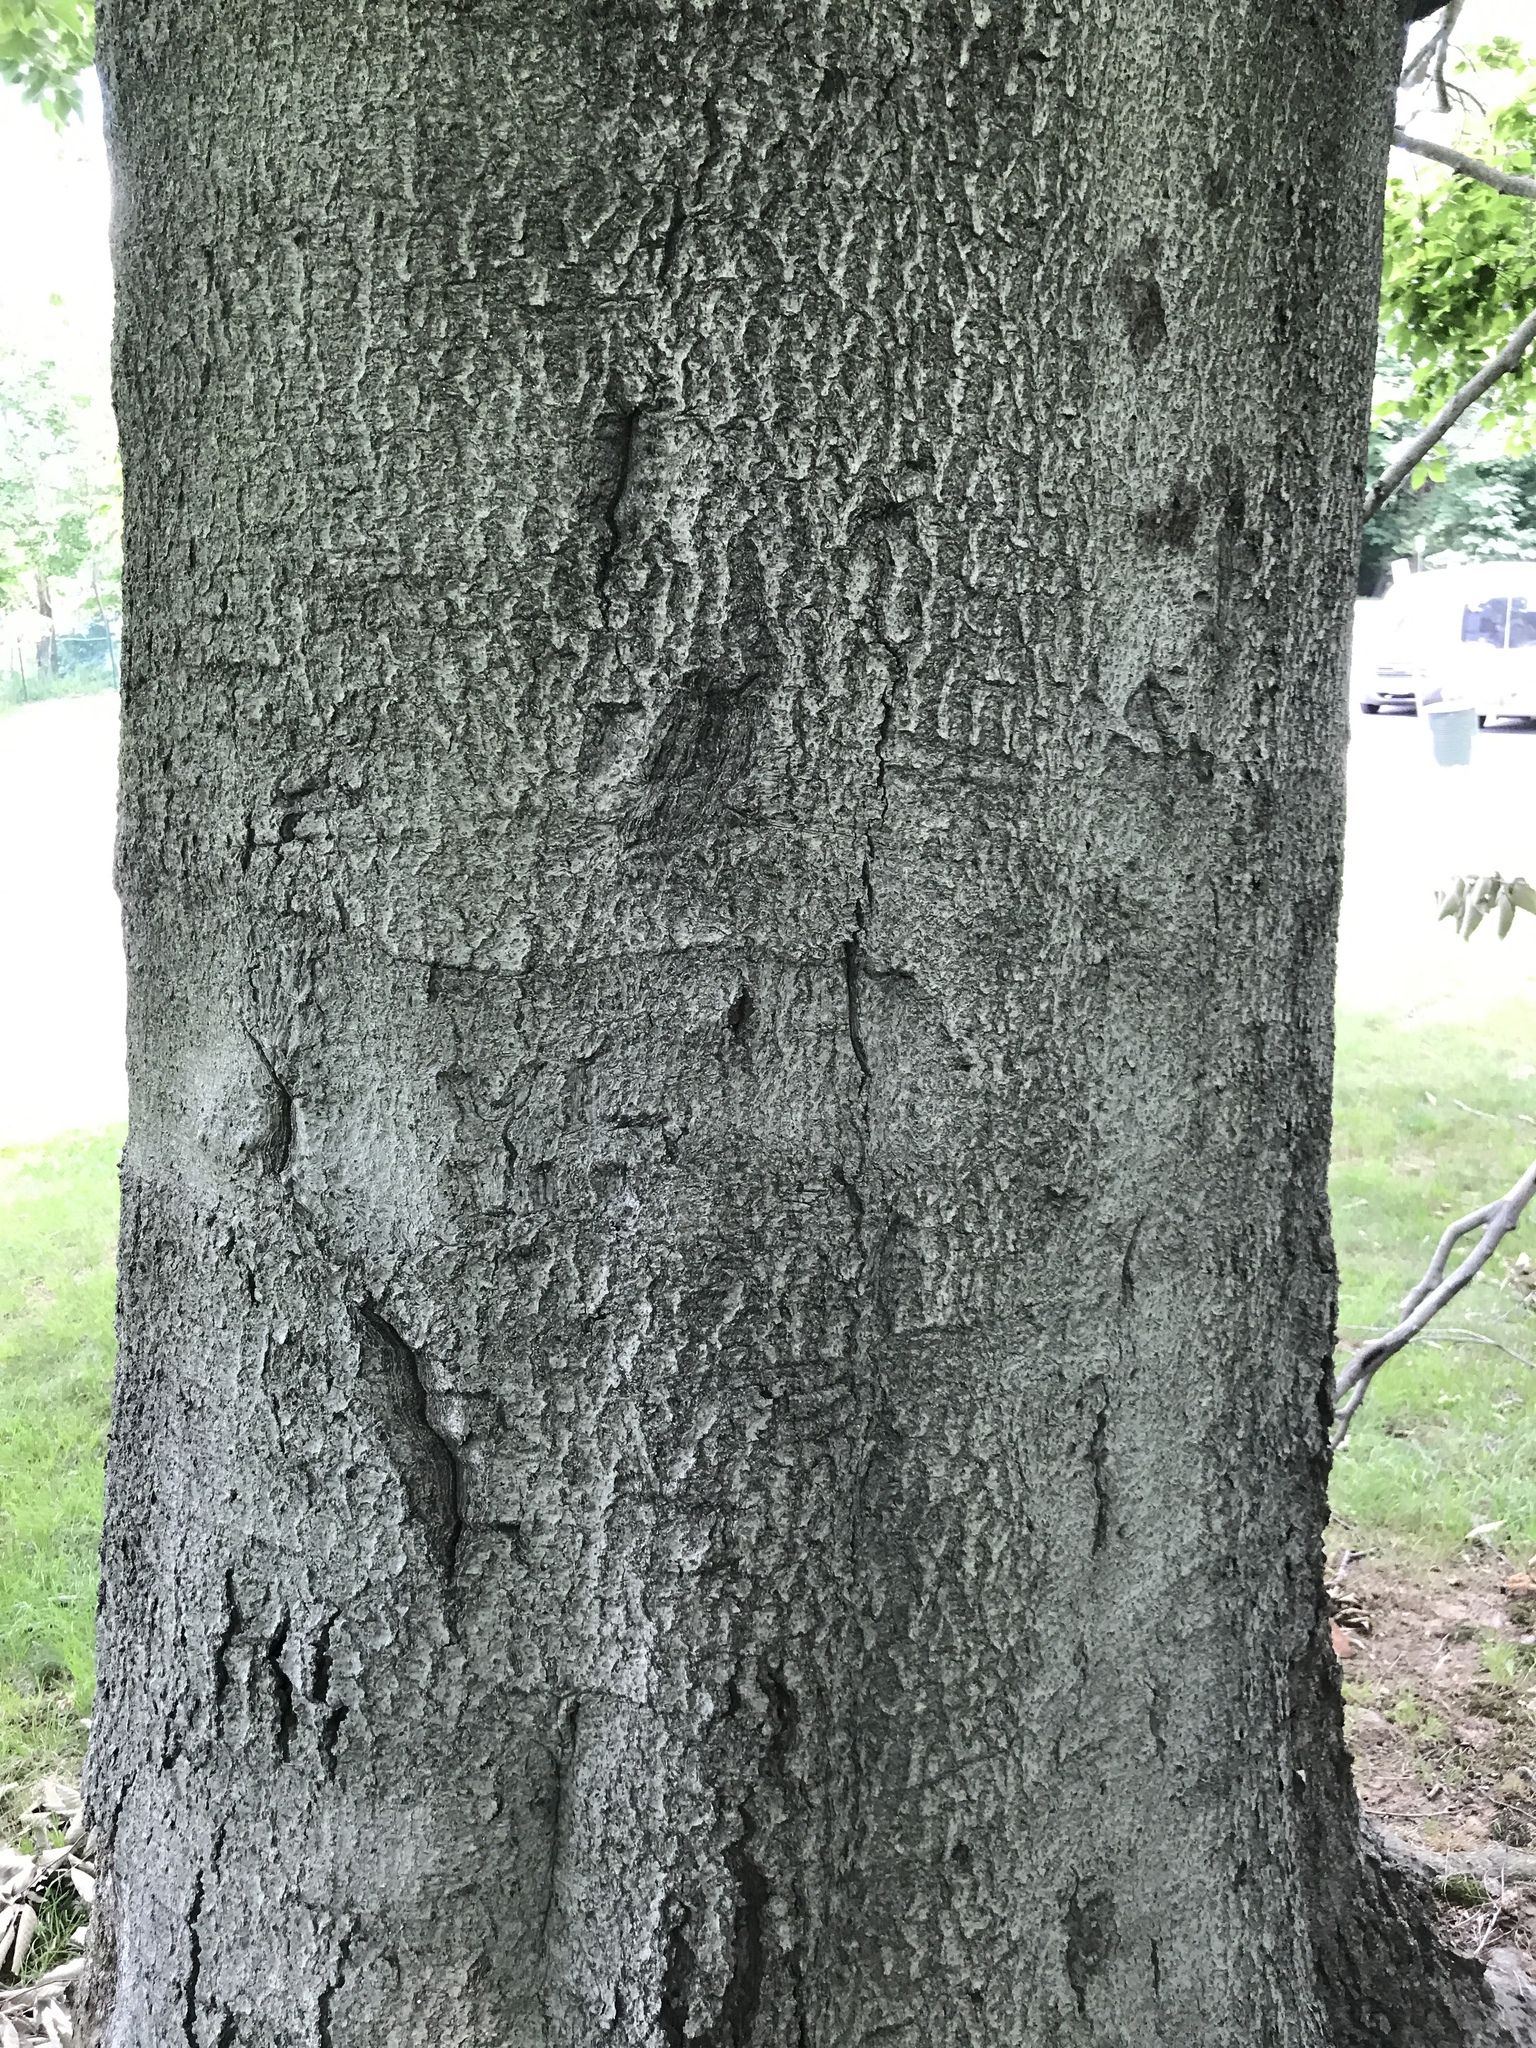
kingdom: Plantae
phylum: Tracheophyta
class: Magnoliopsida
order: Fagales
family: Fagaceae
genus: Fagus
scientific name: Fagus grandifolia
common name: American beech
